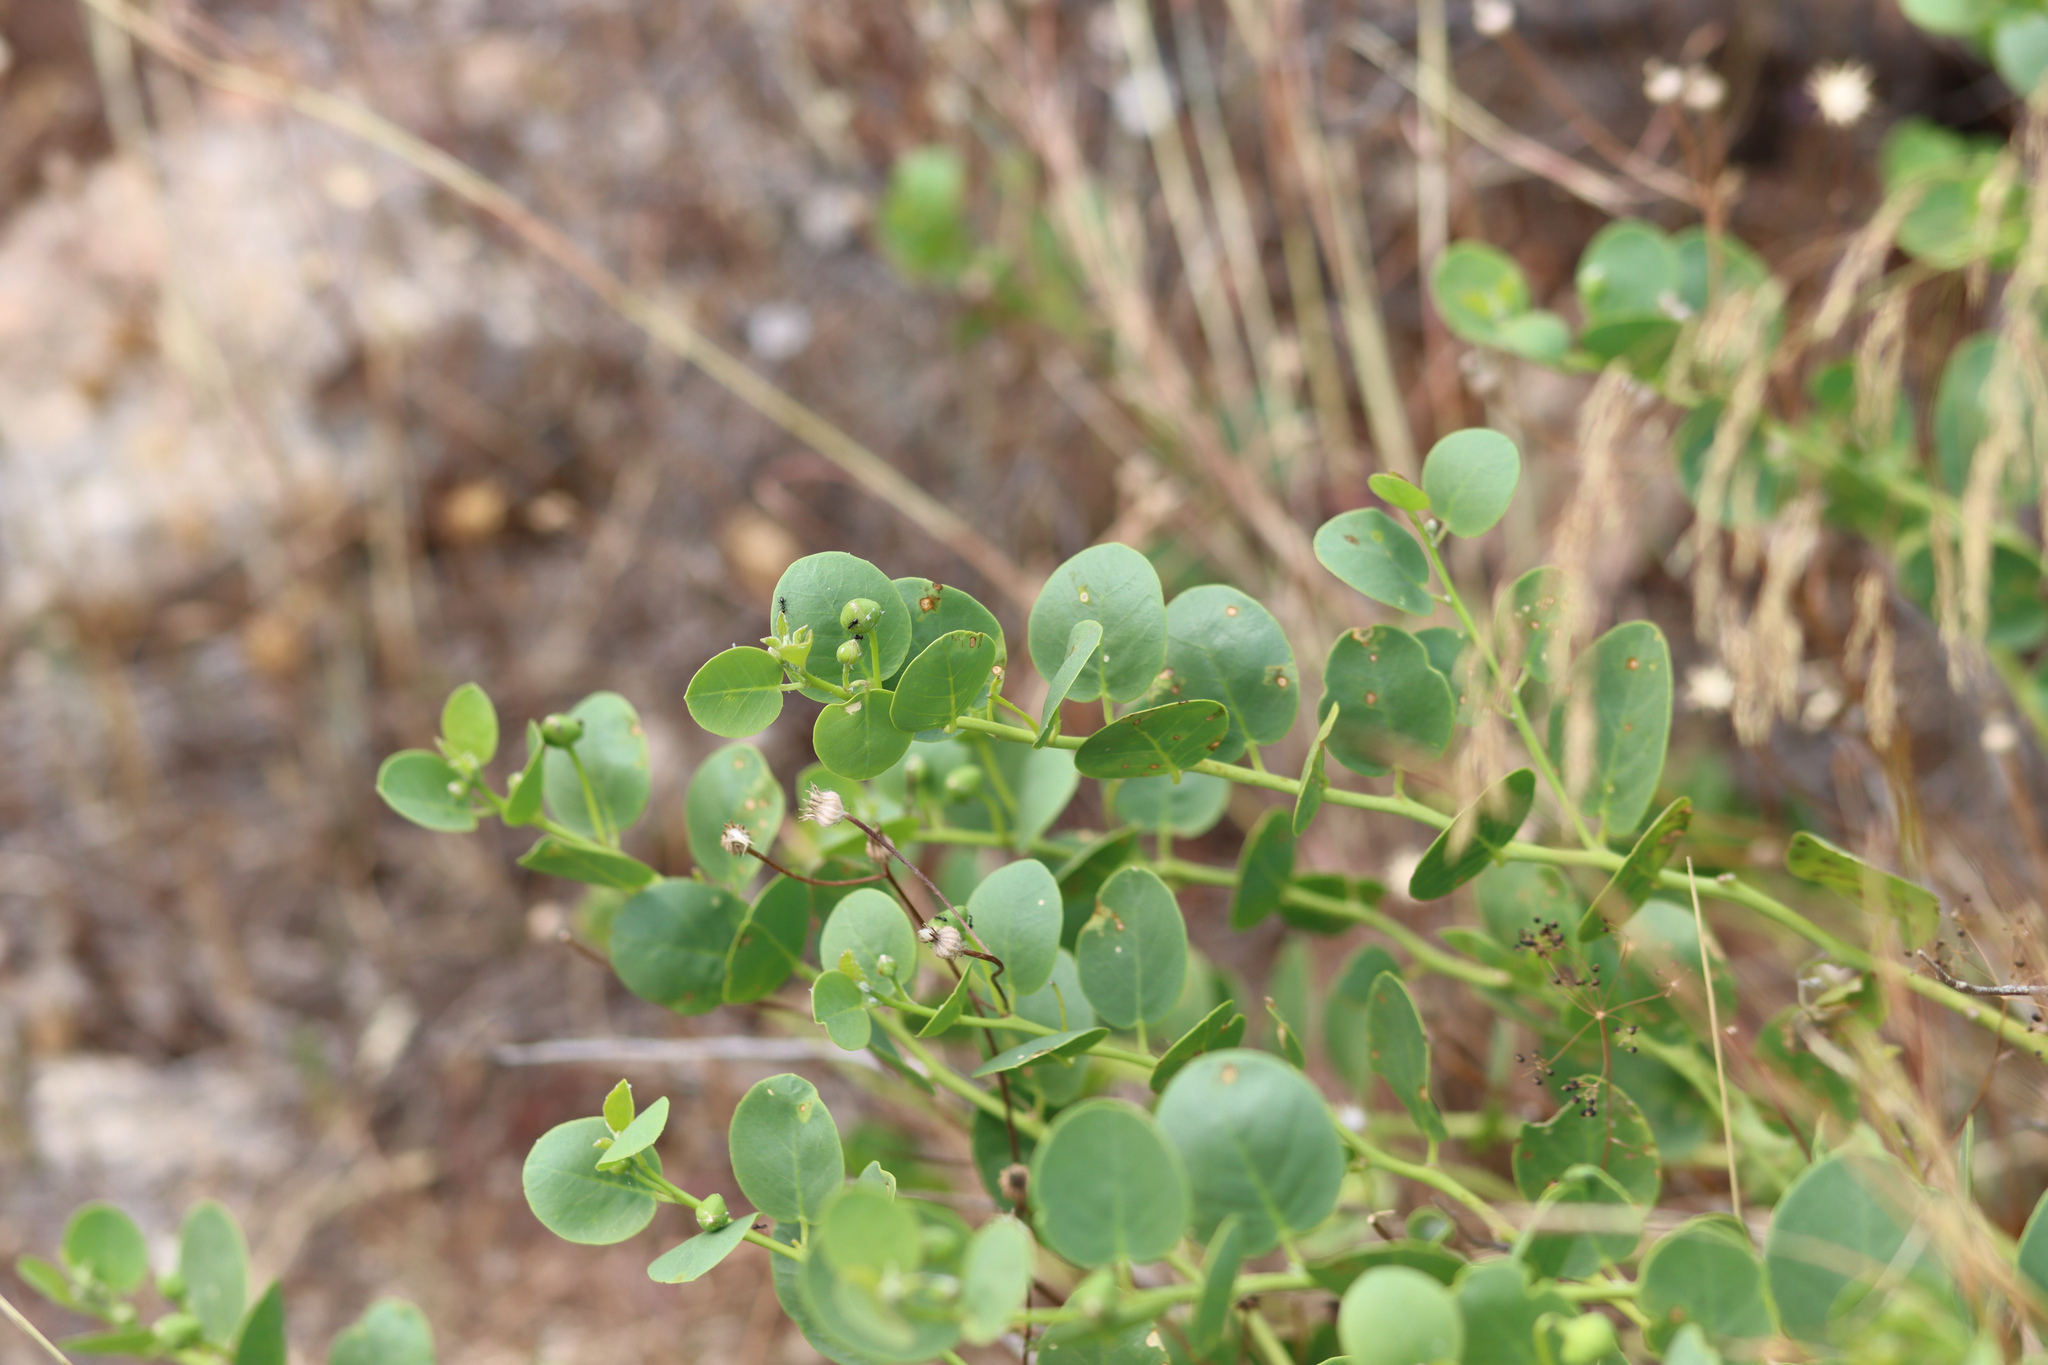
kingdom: Plantae
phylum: Tracheophyta
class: Magnoliopsida
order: Brassicales
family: Capparaceae
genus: Capparis
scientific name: Capparis orientalis
